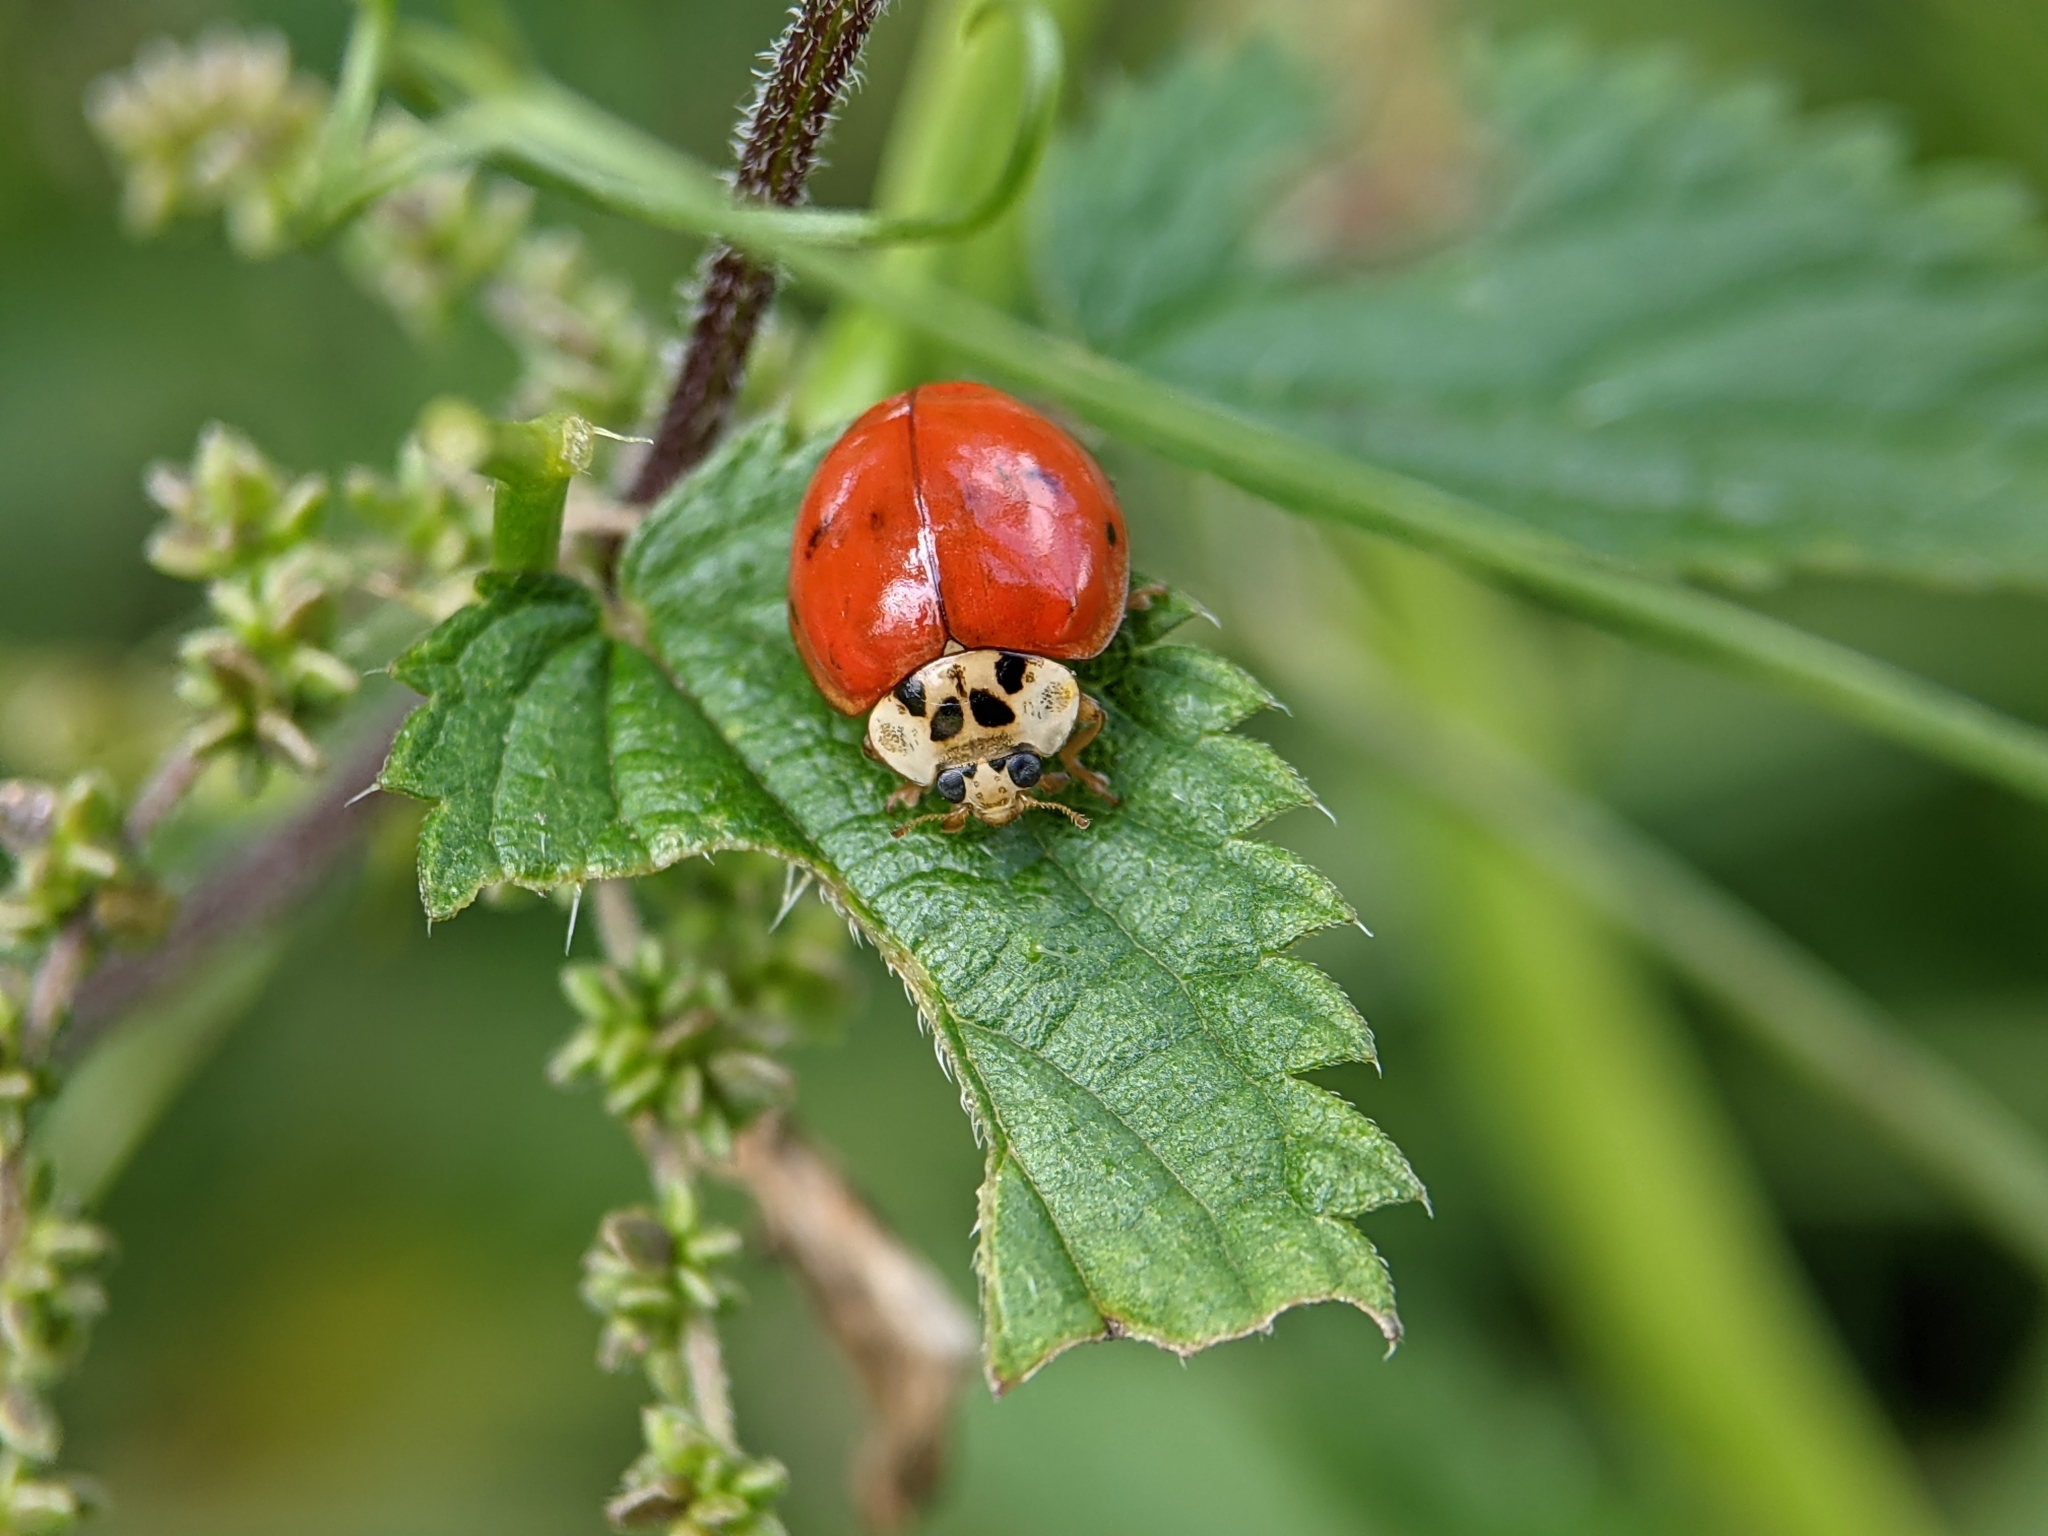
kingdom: Animalia
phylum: Arthropoda
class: Insecta
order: Coleoptera
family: Coccinellidae
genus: Harmonia
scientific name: Harmonia axyridis
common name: Harlequin ladybird
